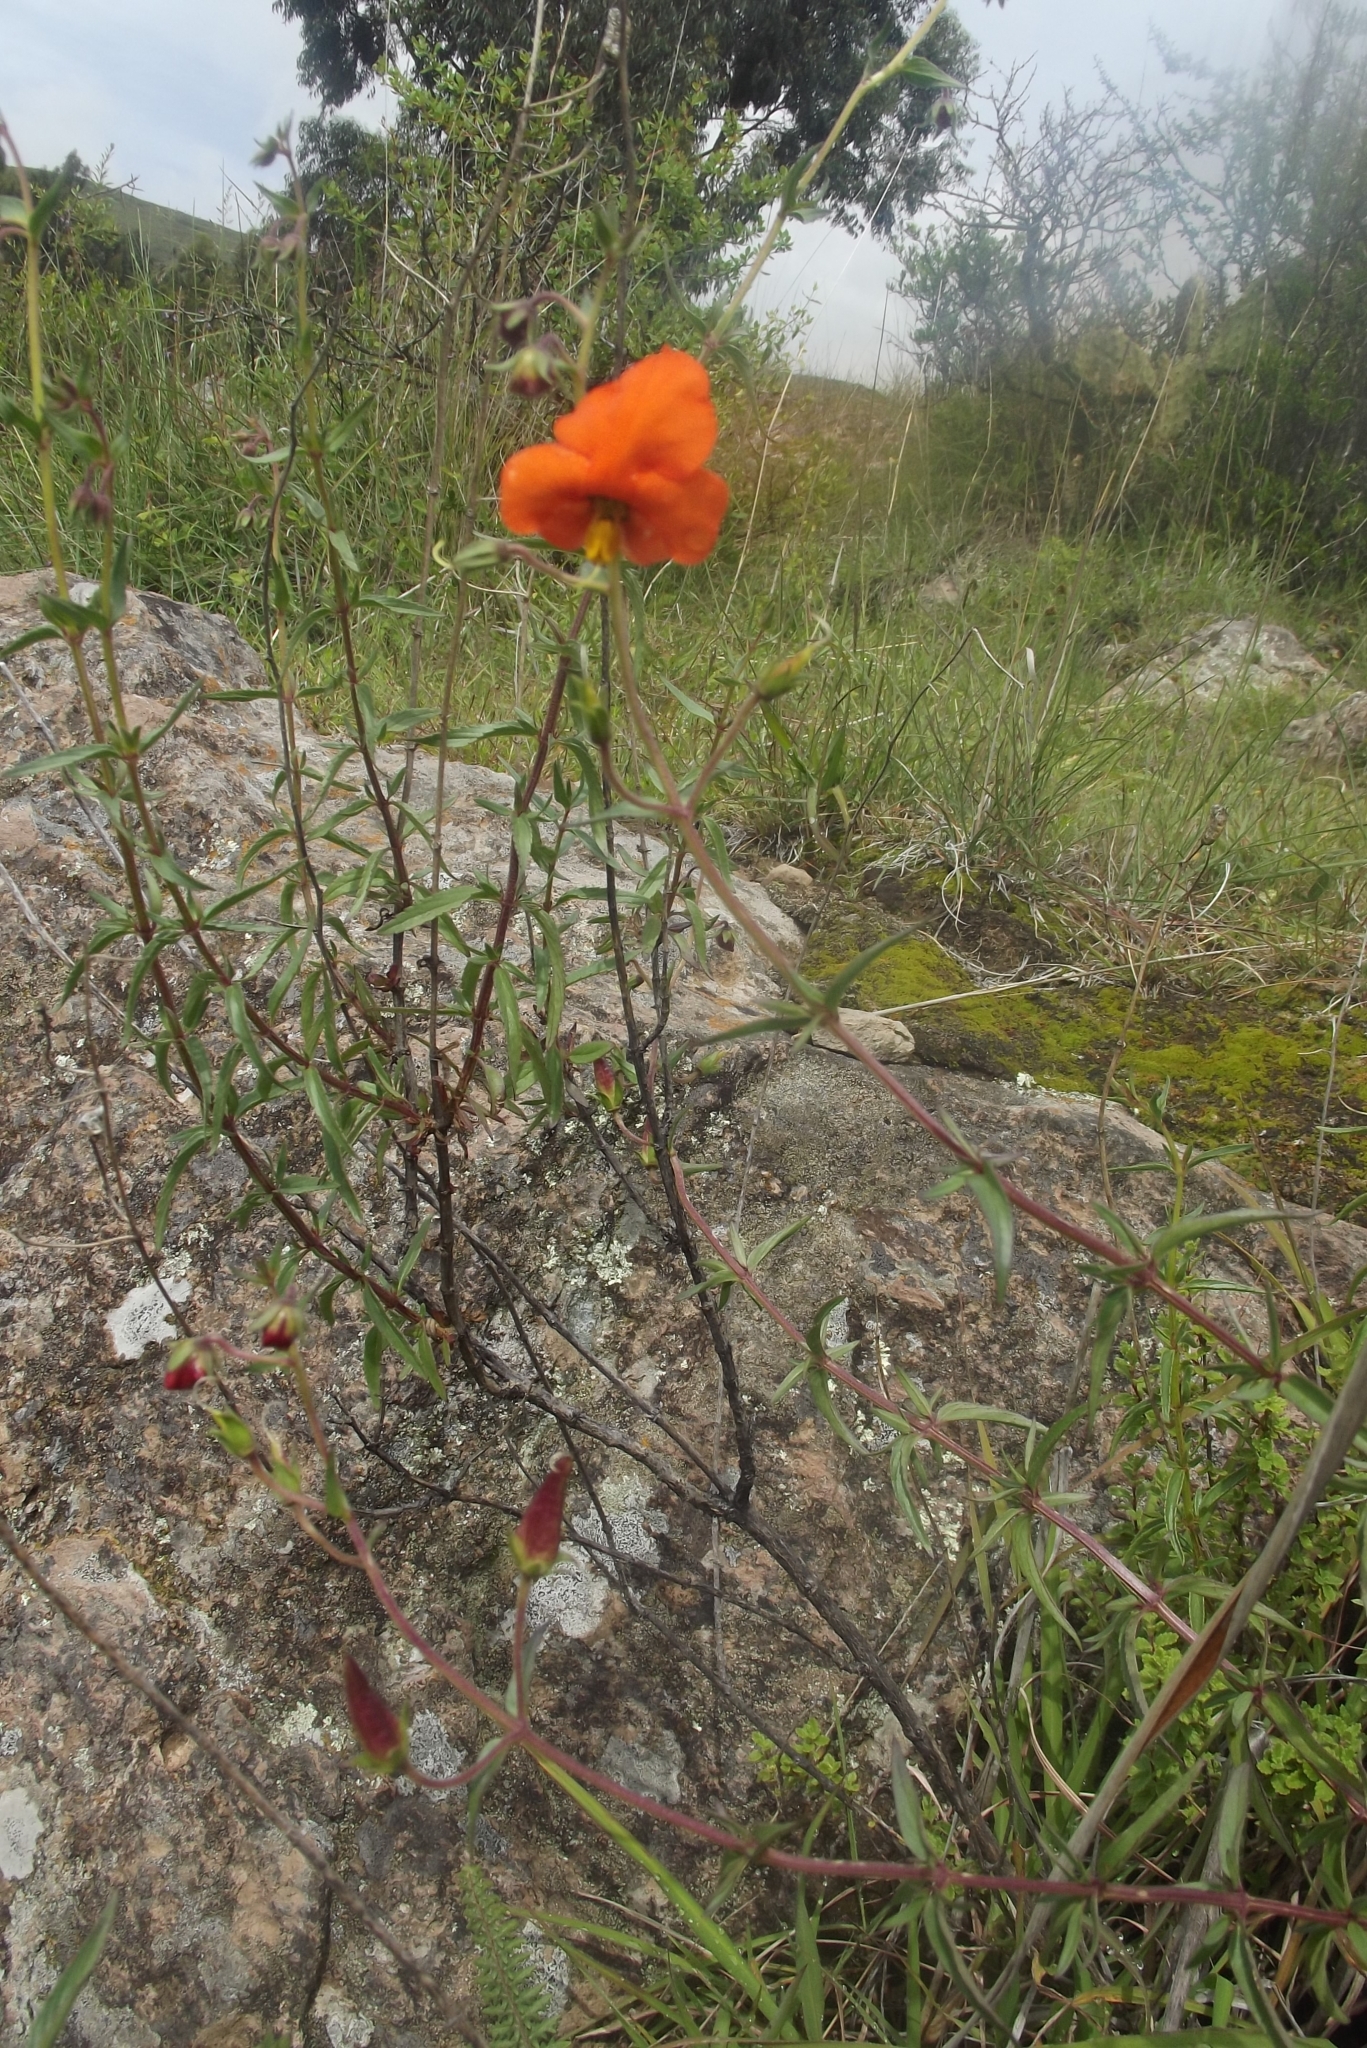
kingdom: Plantae
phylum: Tracheophyta
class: Magnoliopsida
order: Lamiales
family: Scrophulariaceae
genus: Alonsoa
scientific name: Alonsoa linearis
